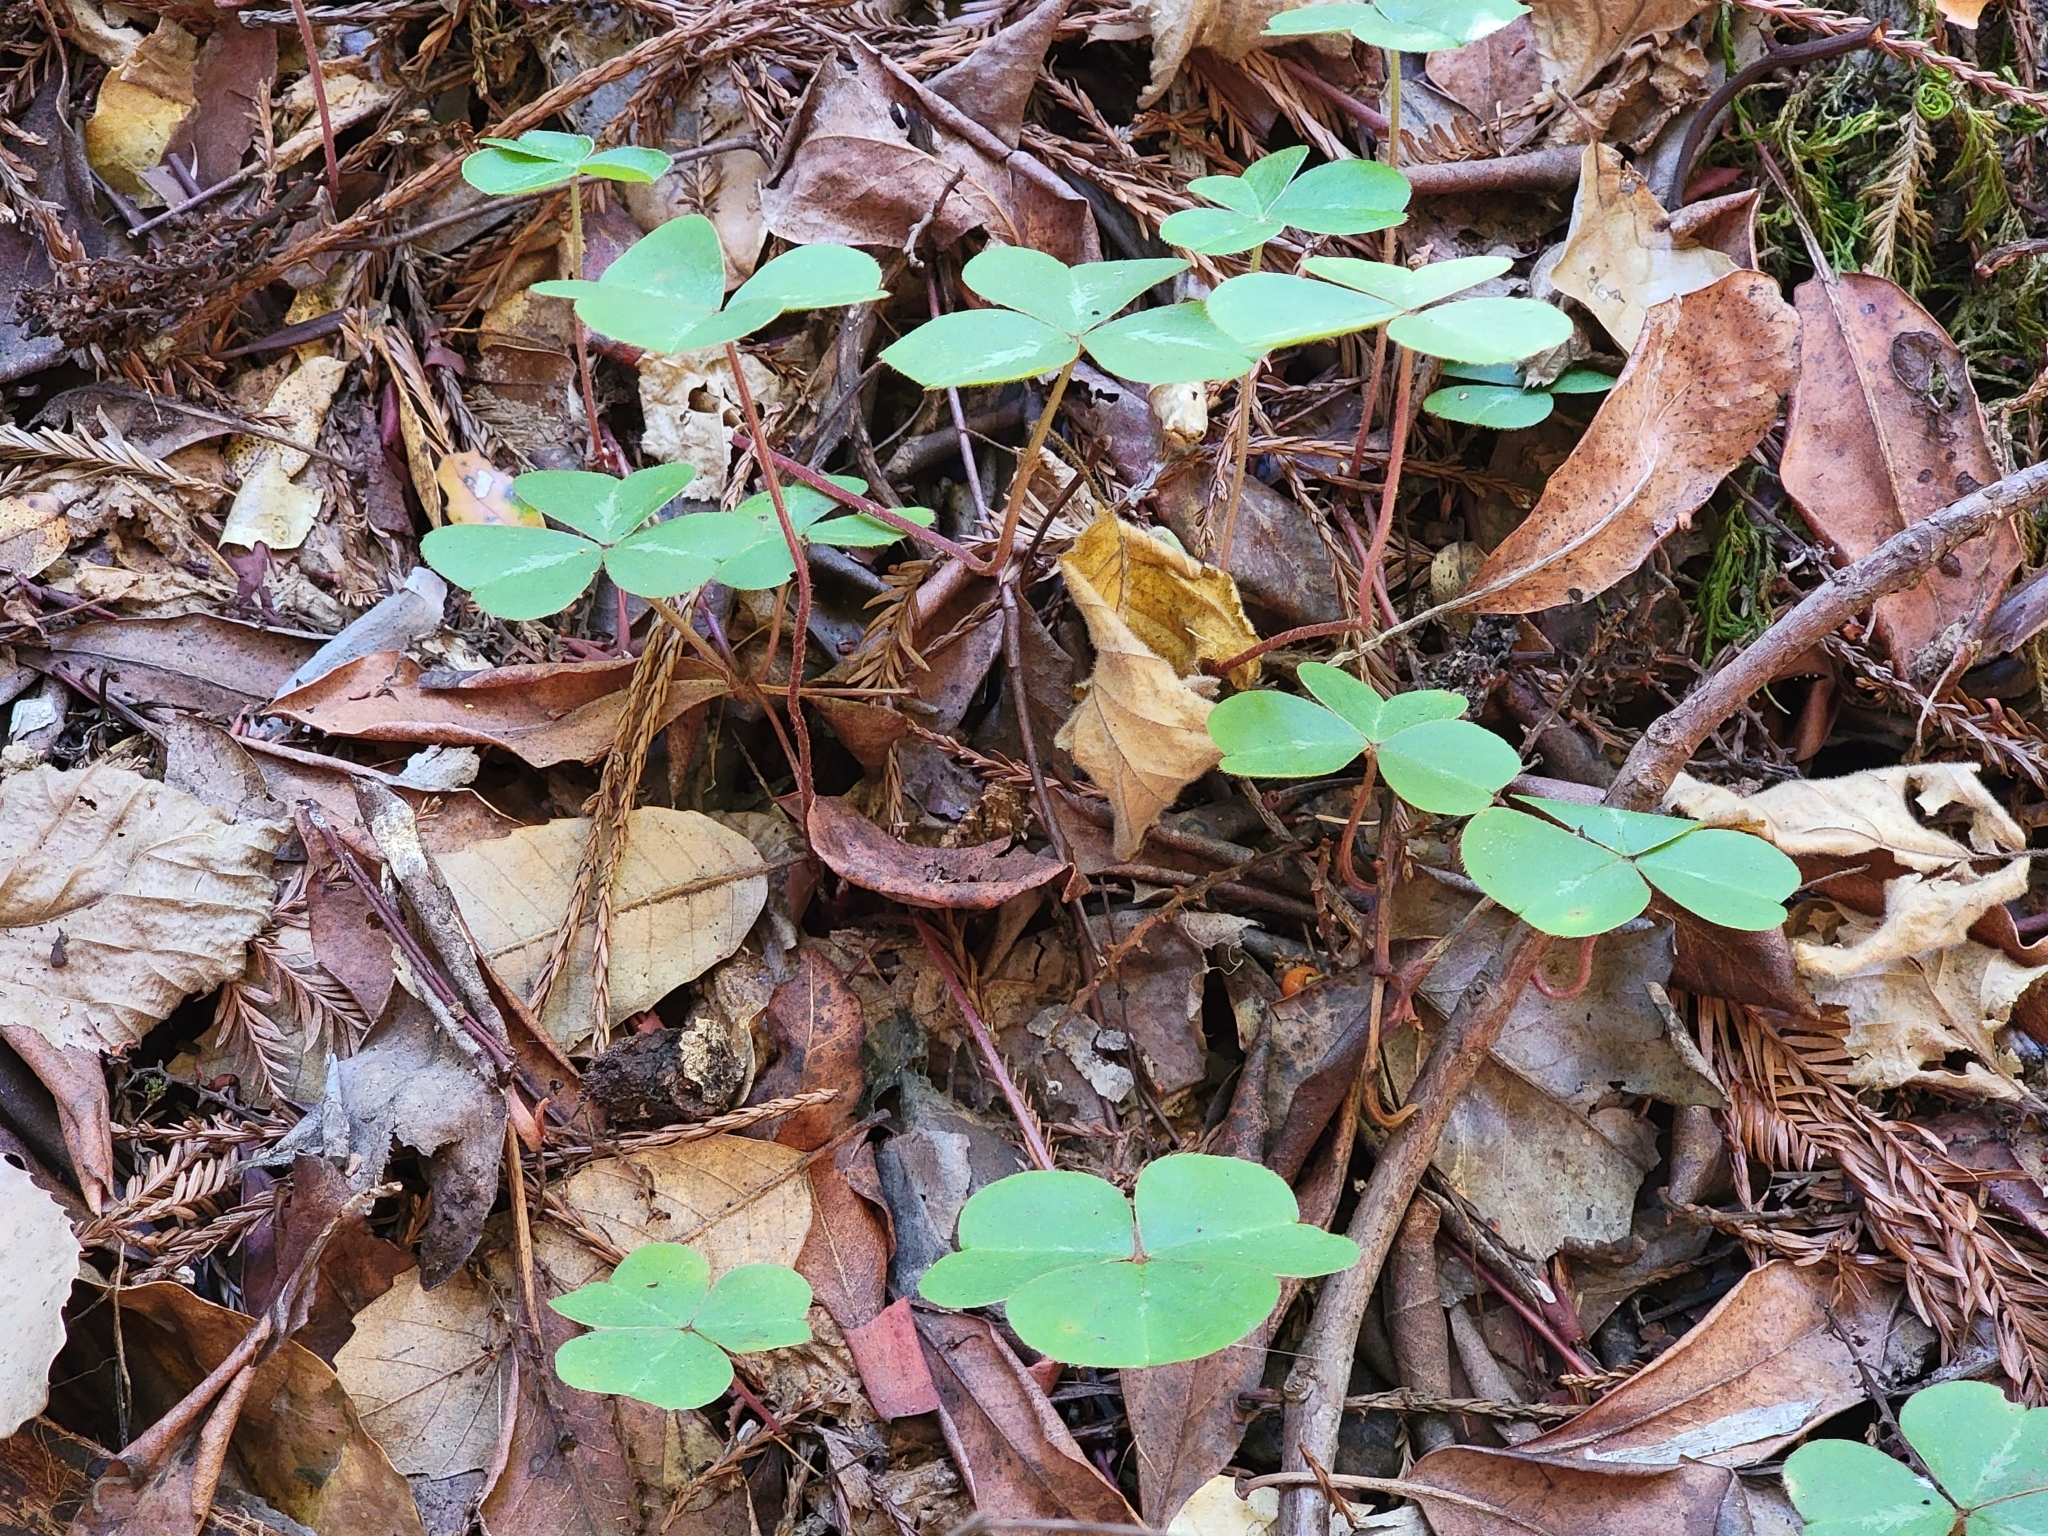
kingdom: Plantae
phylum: Tracheophyta
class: Magnoliopsida
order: Oxalidales
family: Oxalidaceae
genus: Oxalis
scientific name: Oxalis oregana
